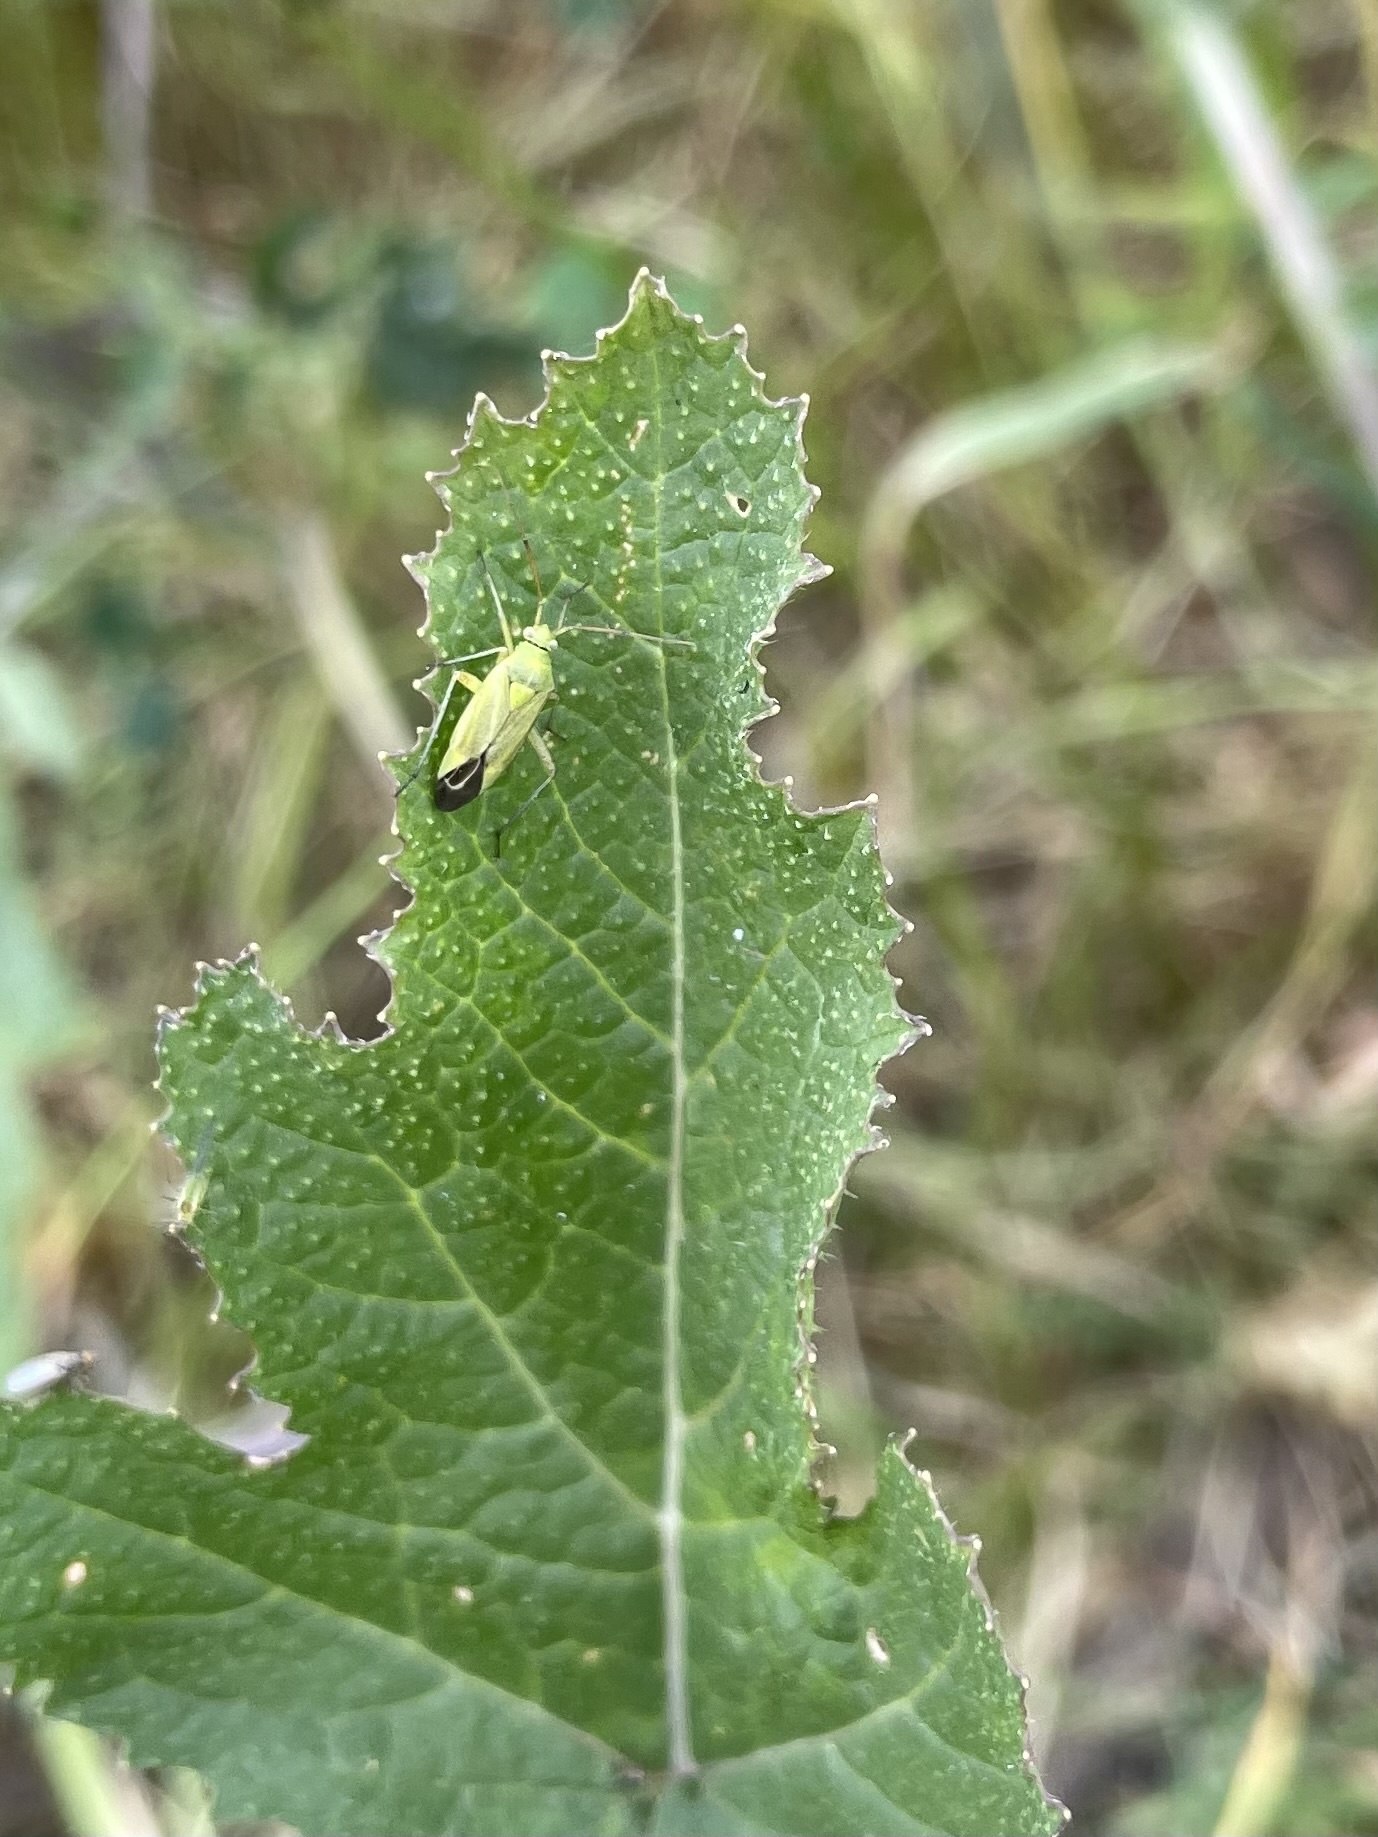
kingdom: Animalia
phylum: Arthropoda
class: Insecta
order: Hemiptera
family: Miridae
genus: Closterotomus
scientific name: Closterotomus norvegicus
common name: Plant bug
